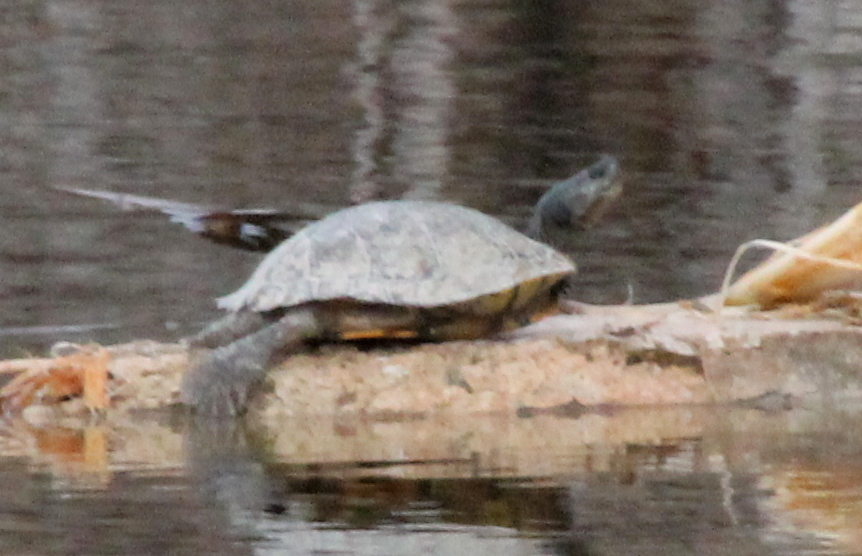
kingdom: Animalia
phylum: Chordata
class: Testudines
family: Emydidae
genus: Trachemys
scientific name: Trachemys scripta
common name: Slider
